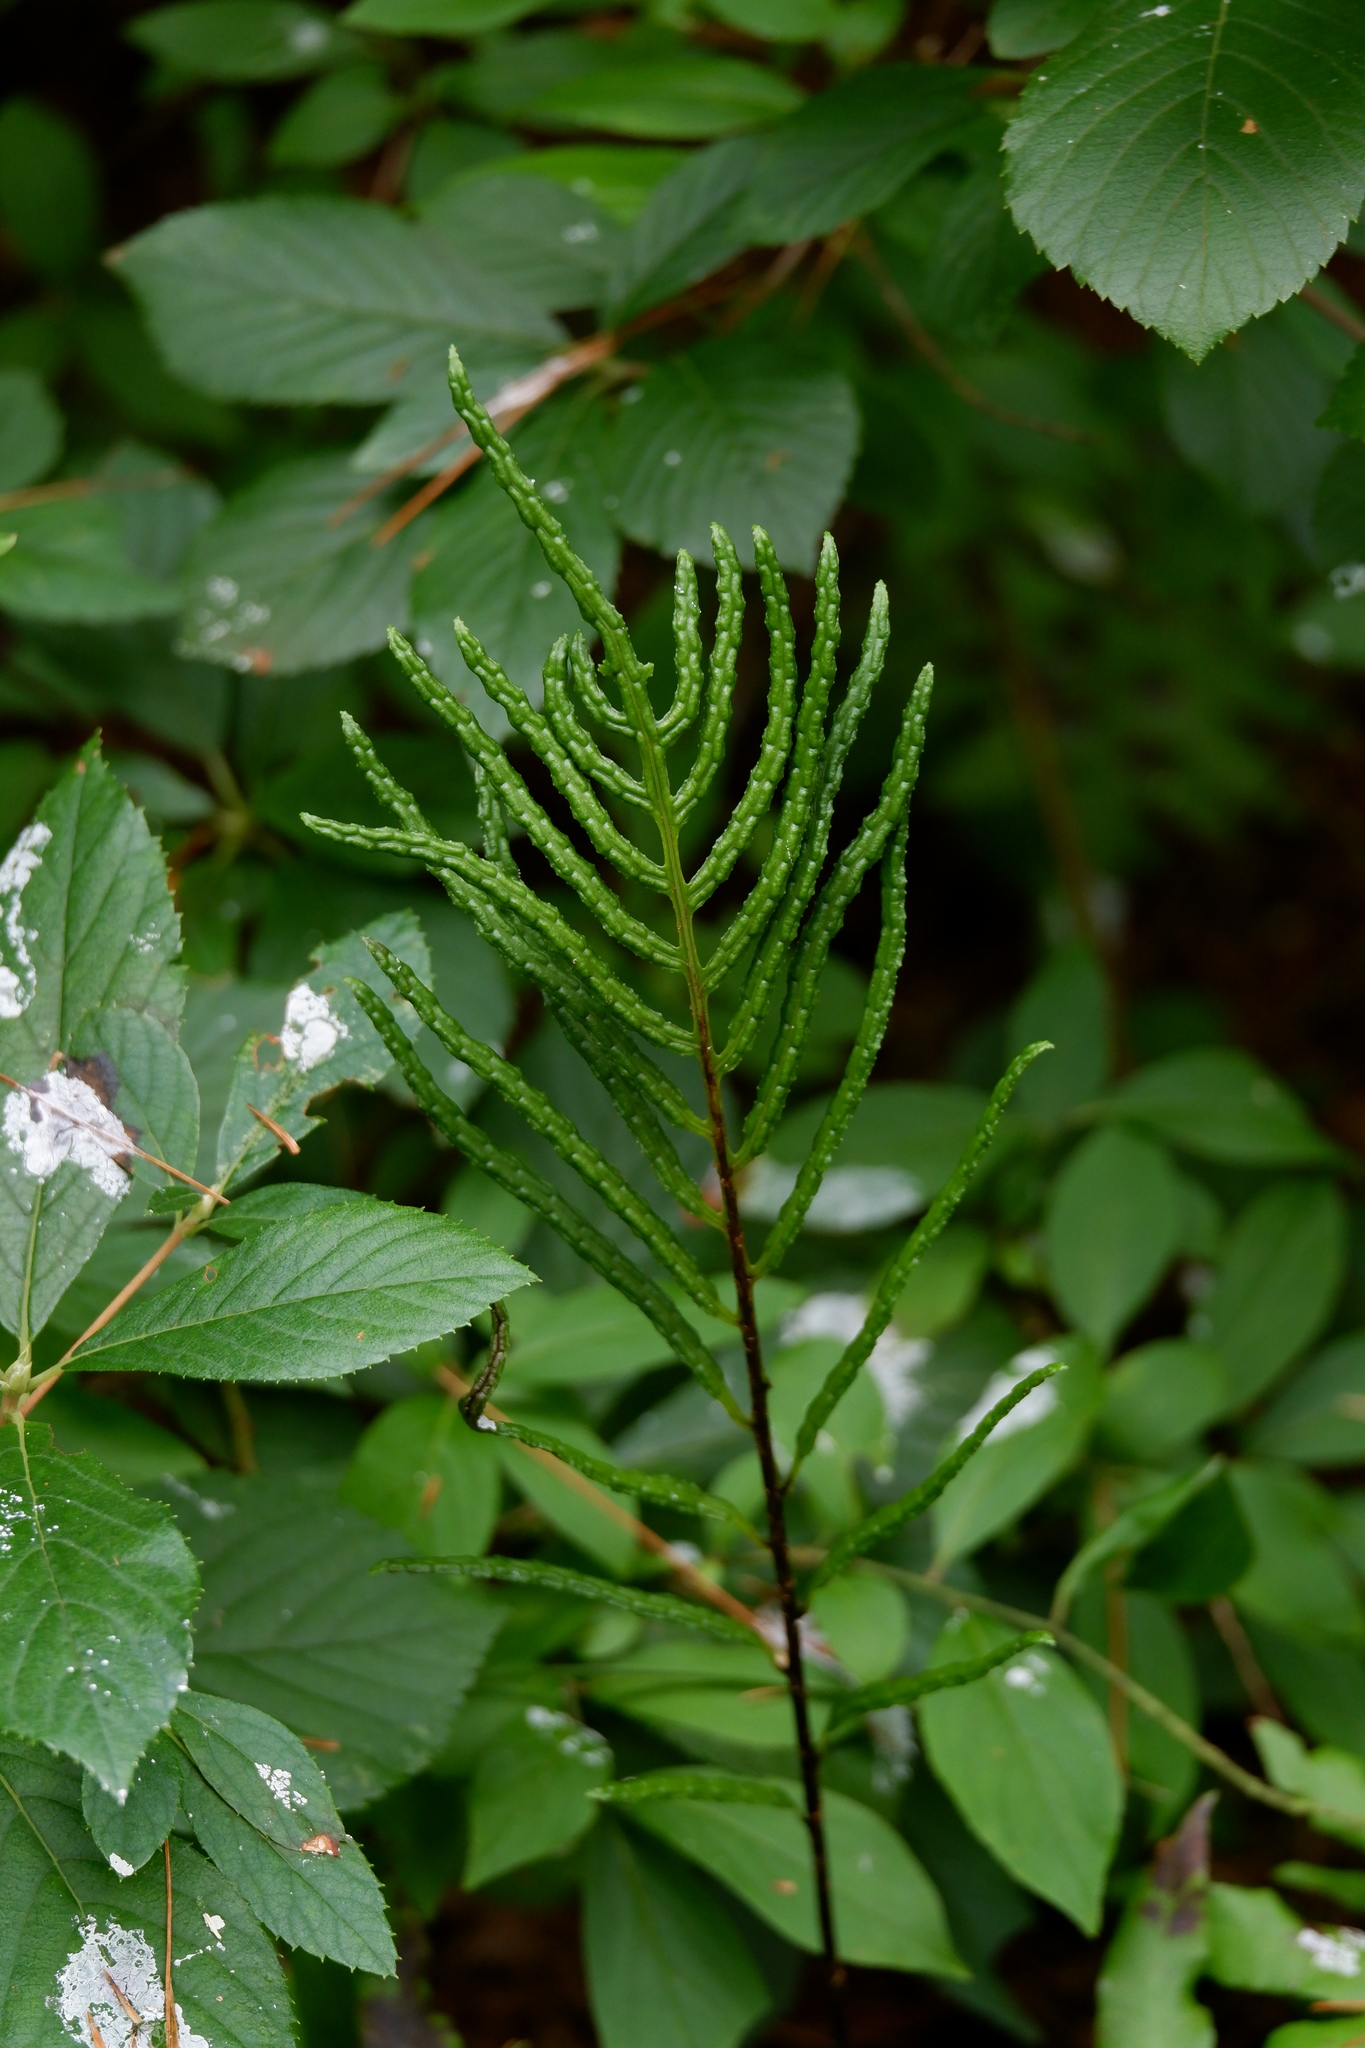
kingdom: Plantae
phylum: Tracheophyta
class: Polypodiopsida
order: Polypodiales
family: Blechnaceae
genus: Lorinseria
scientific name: Lorinseria areolata
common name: Dwarf chain fern
